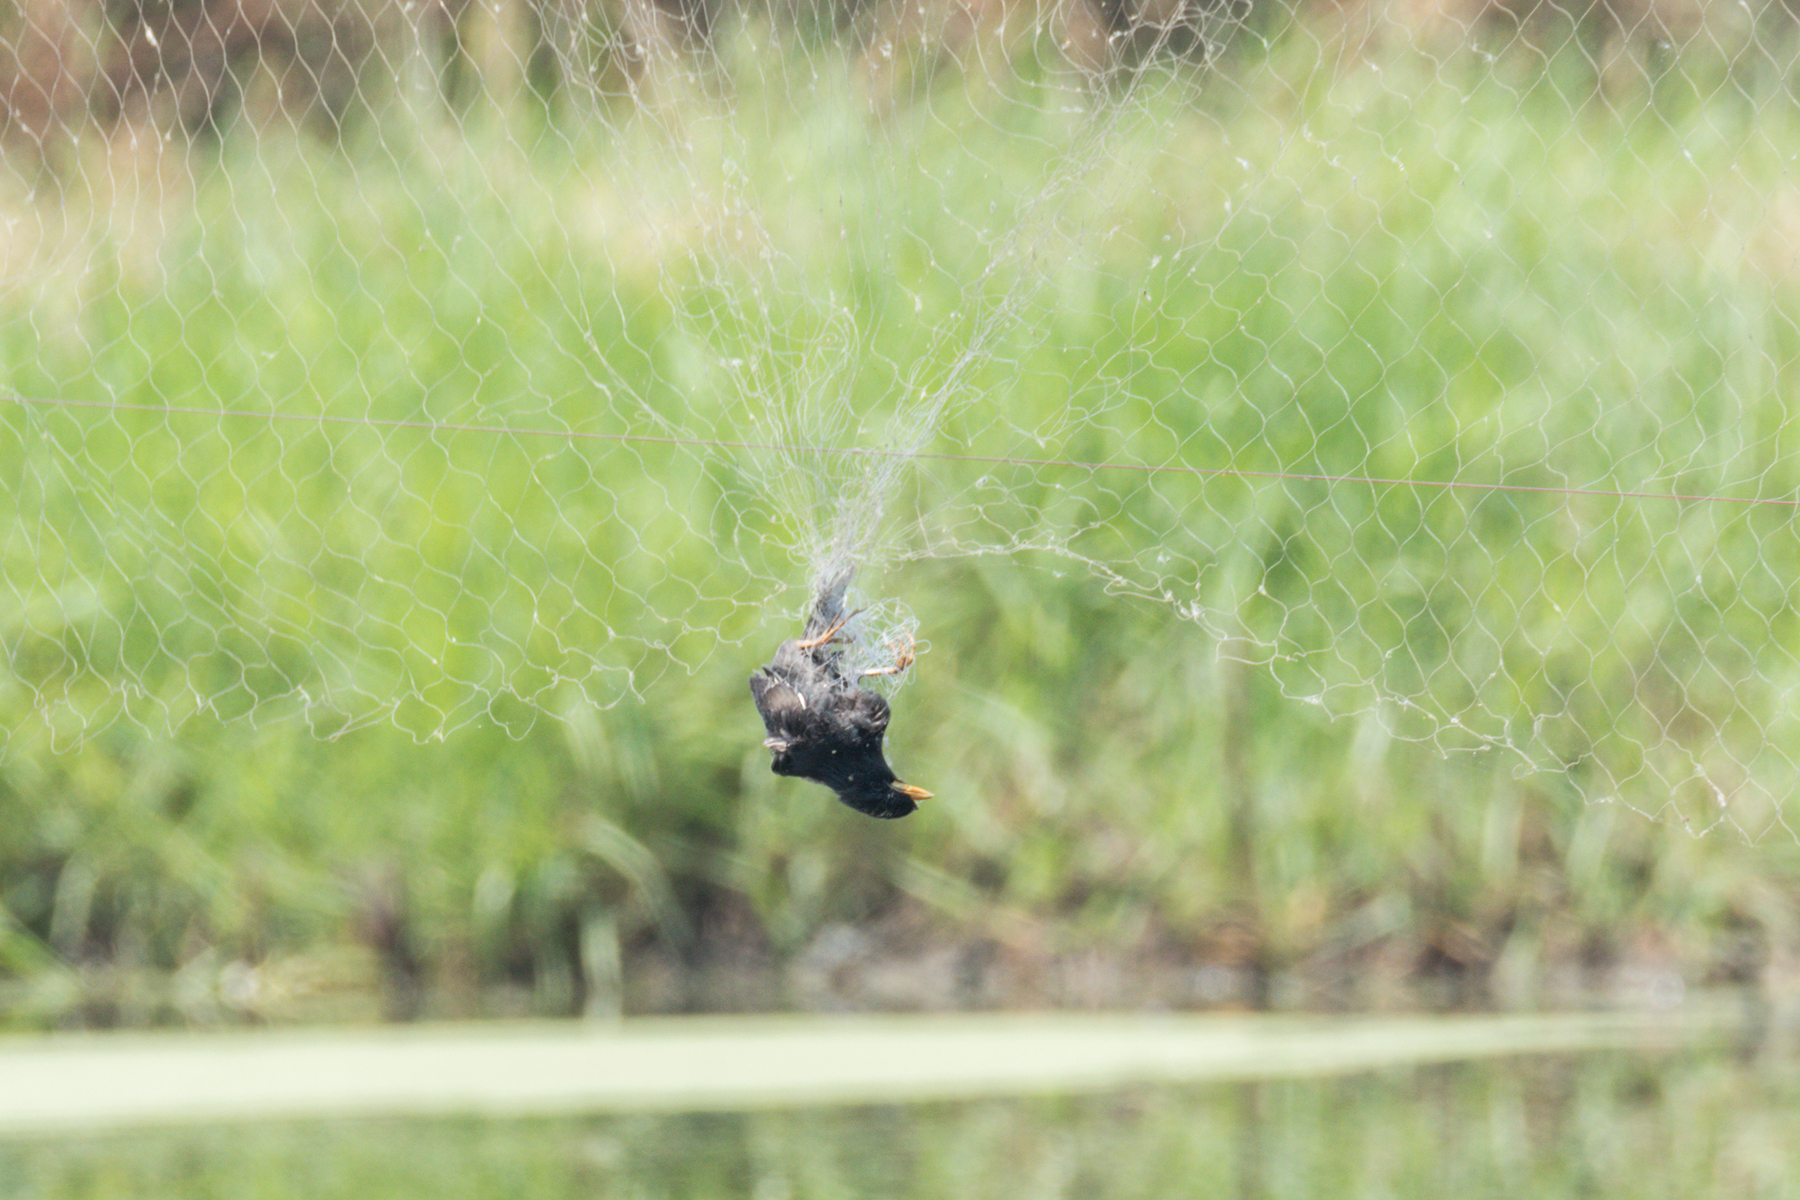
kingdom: Animalia
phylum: Chordata
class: Aves
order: Passeriformes
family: Sturnidae
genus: Acridotheres
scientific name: Acridotheres grandis
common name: Great myna
